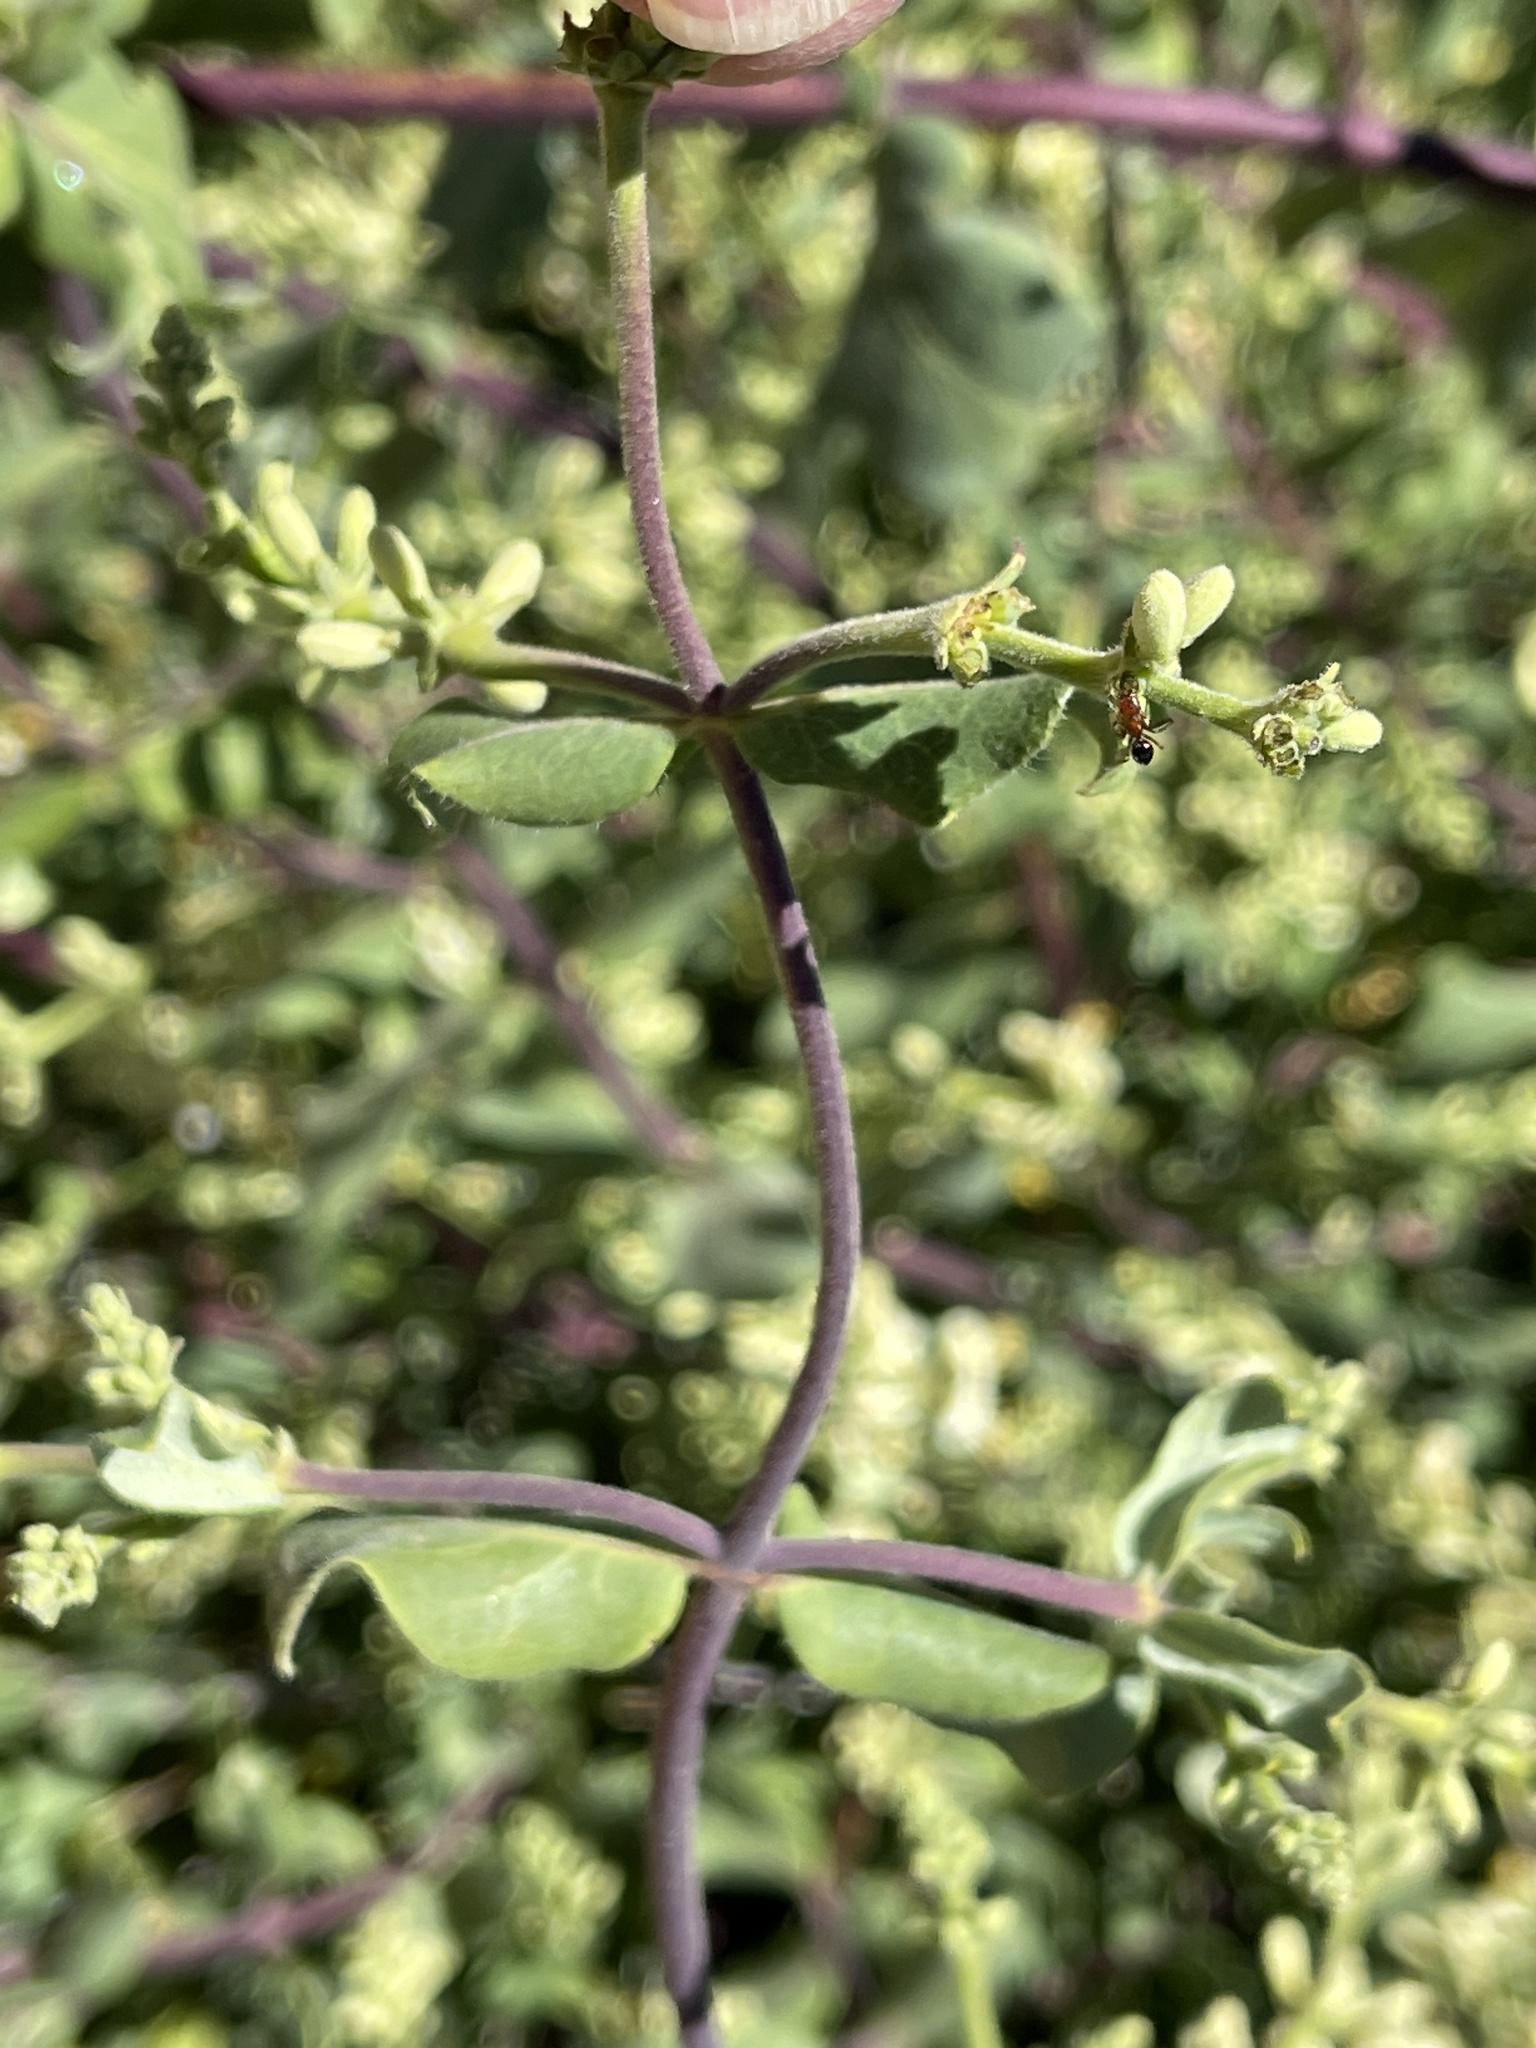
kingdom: Plantae
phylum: Tracheophyta
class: Magnoliopsida
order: Dipsacales
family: Caprifoliaceae
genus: Lonicera
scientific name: Lonicera subspicata
